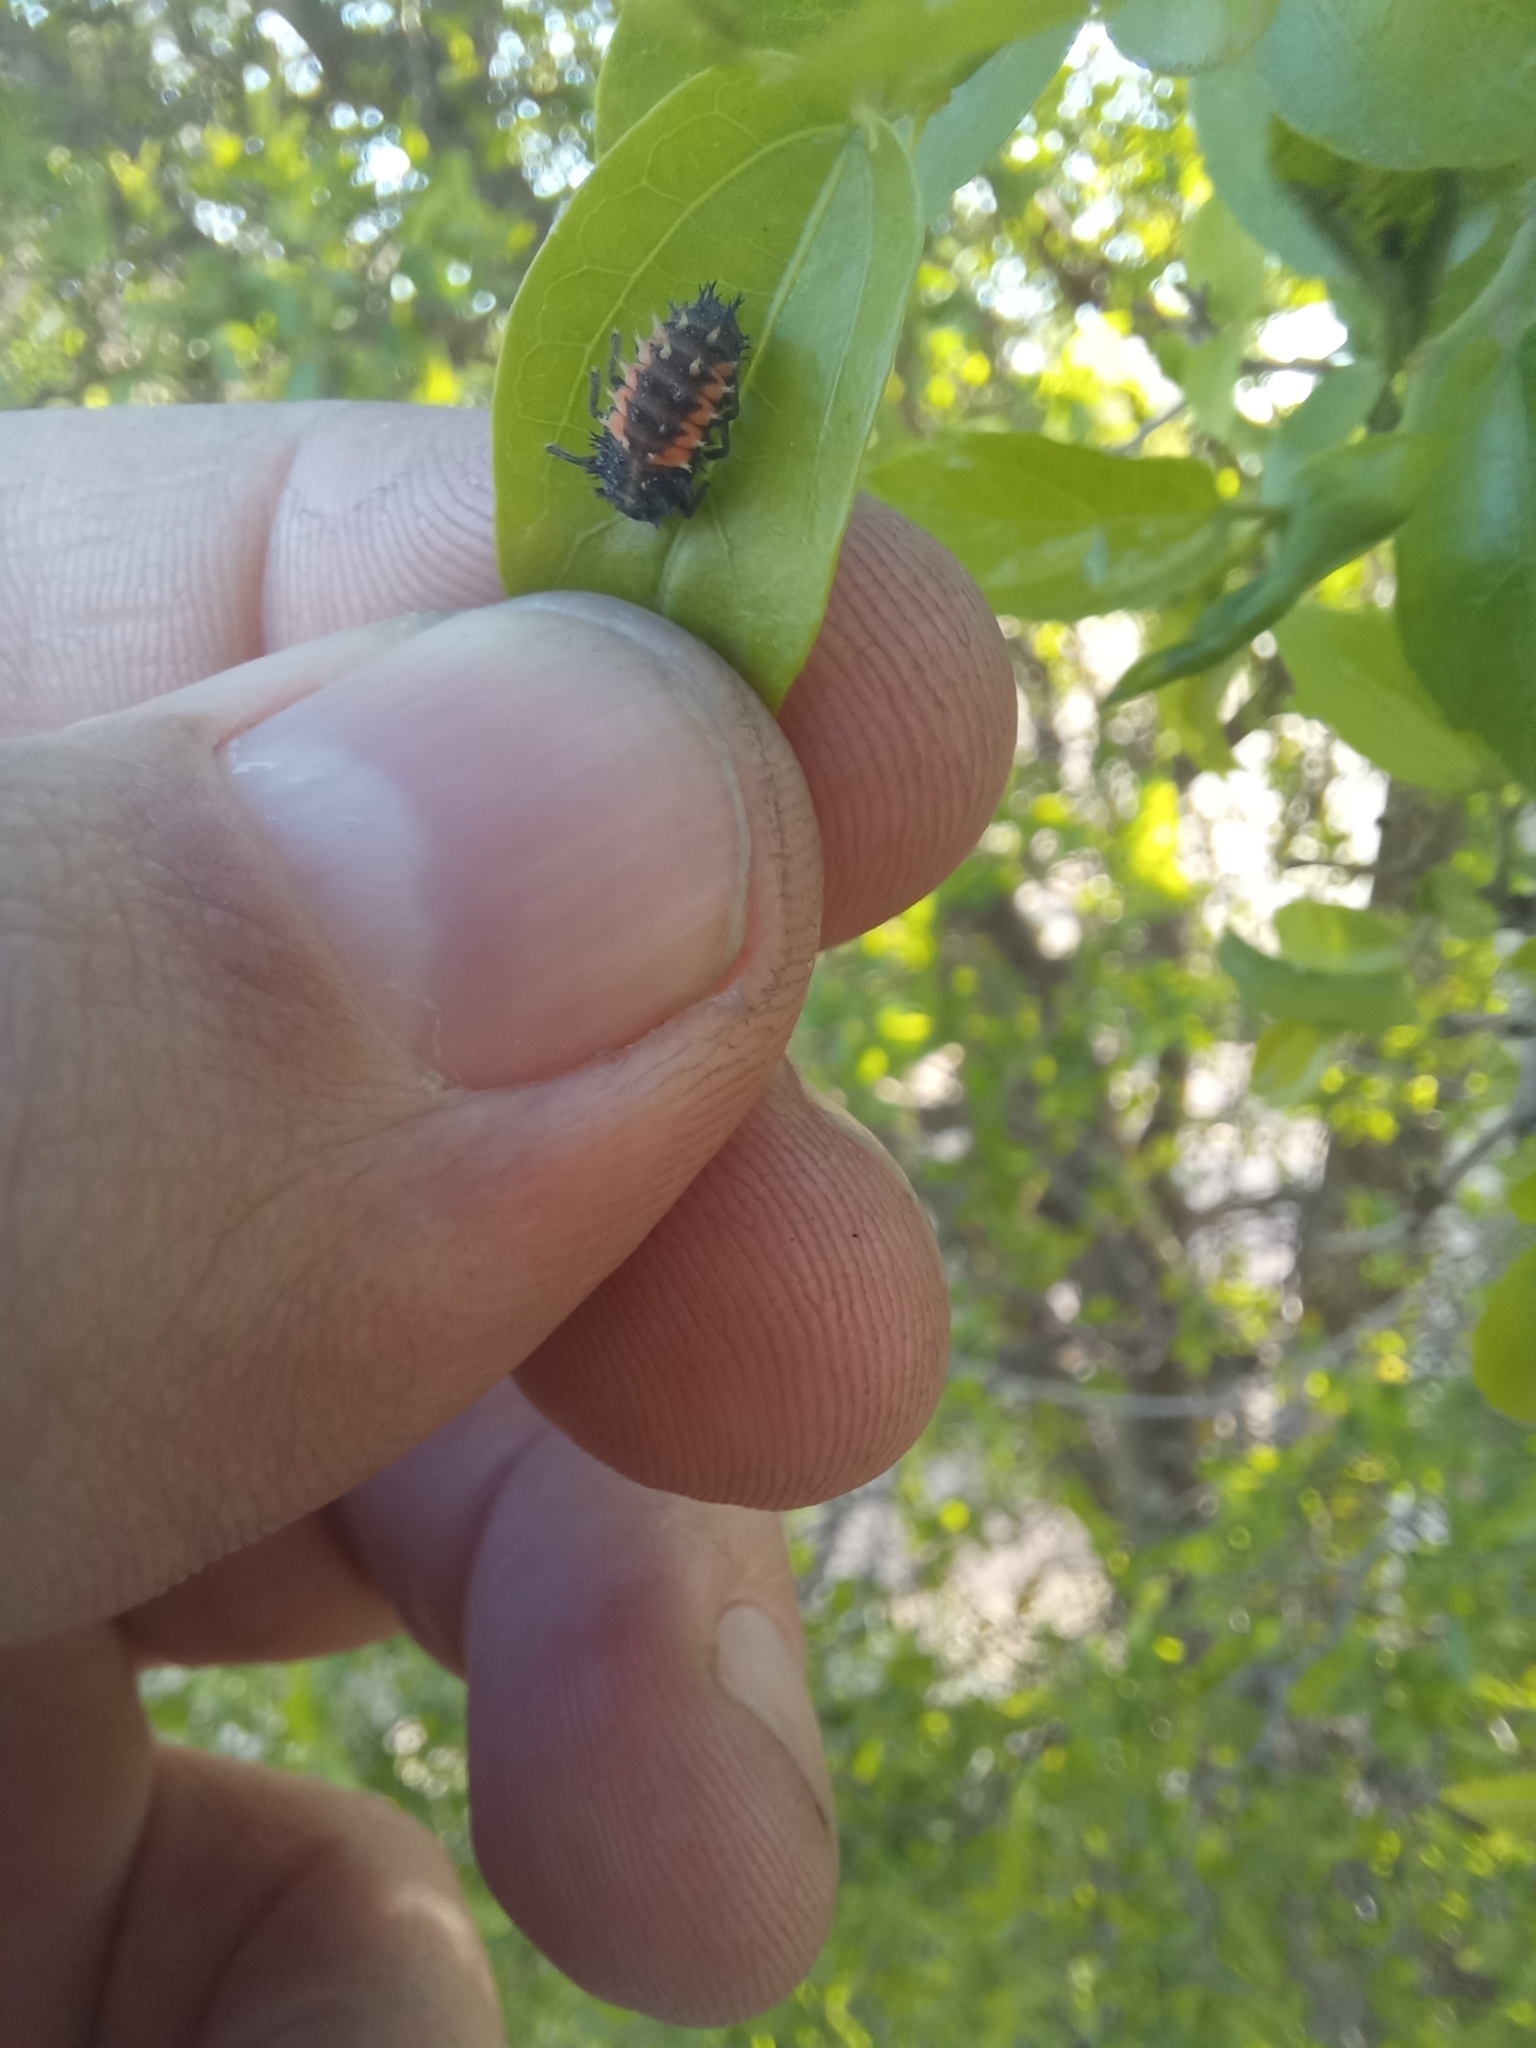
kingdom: Animalia
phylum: Arthropoda
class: Insecta
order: Coleoptera
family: Coccinellidae
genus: Harmonia
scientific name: Harmonia axyridis
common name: Harlequin ladybird
